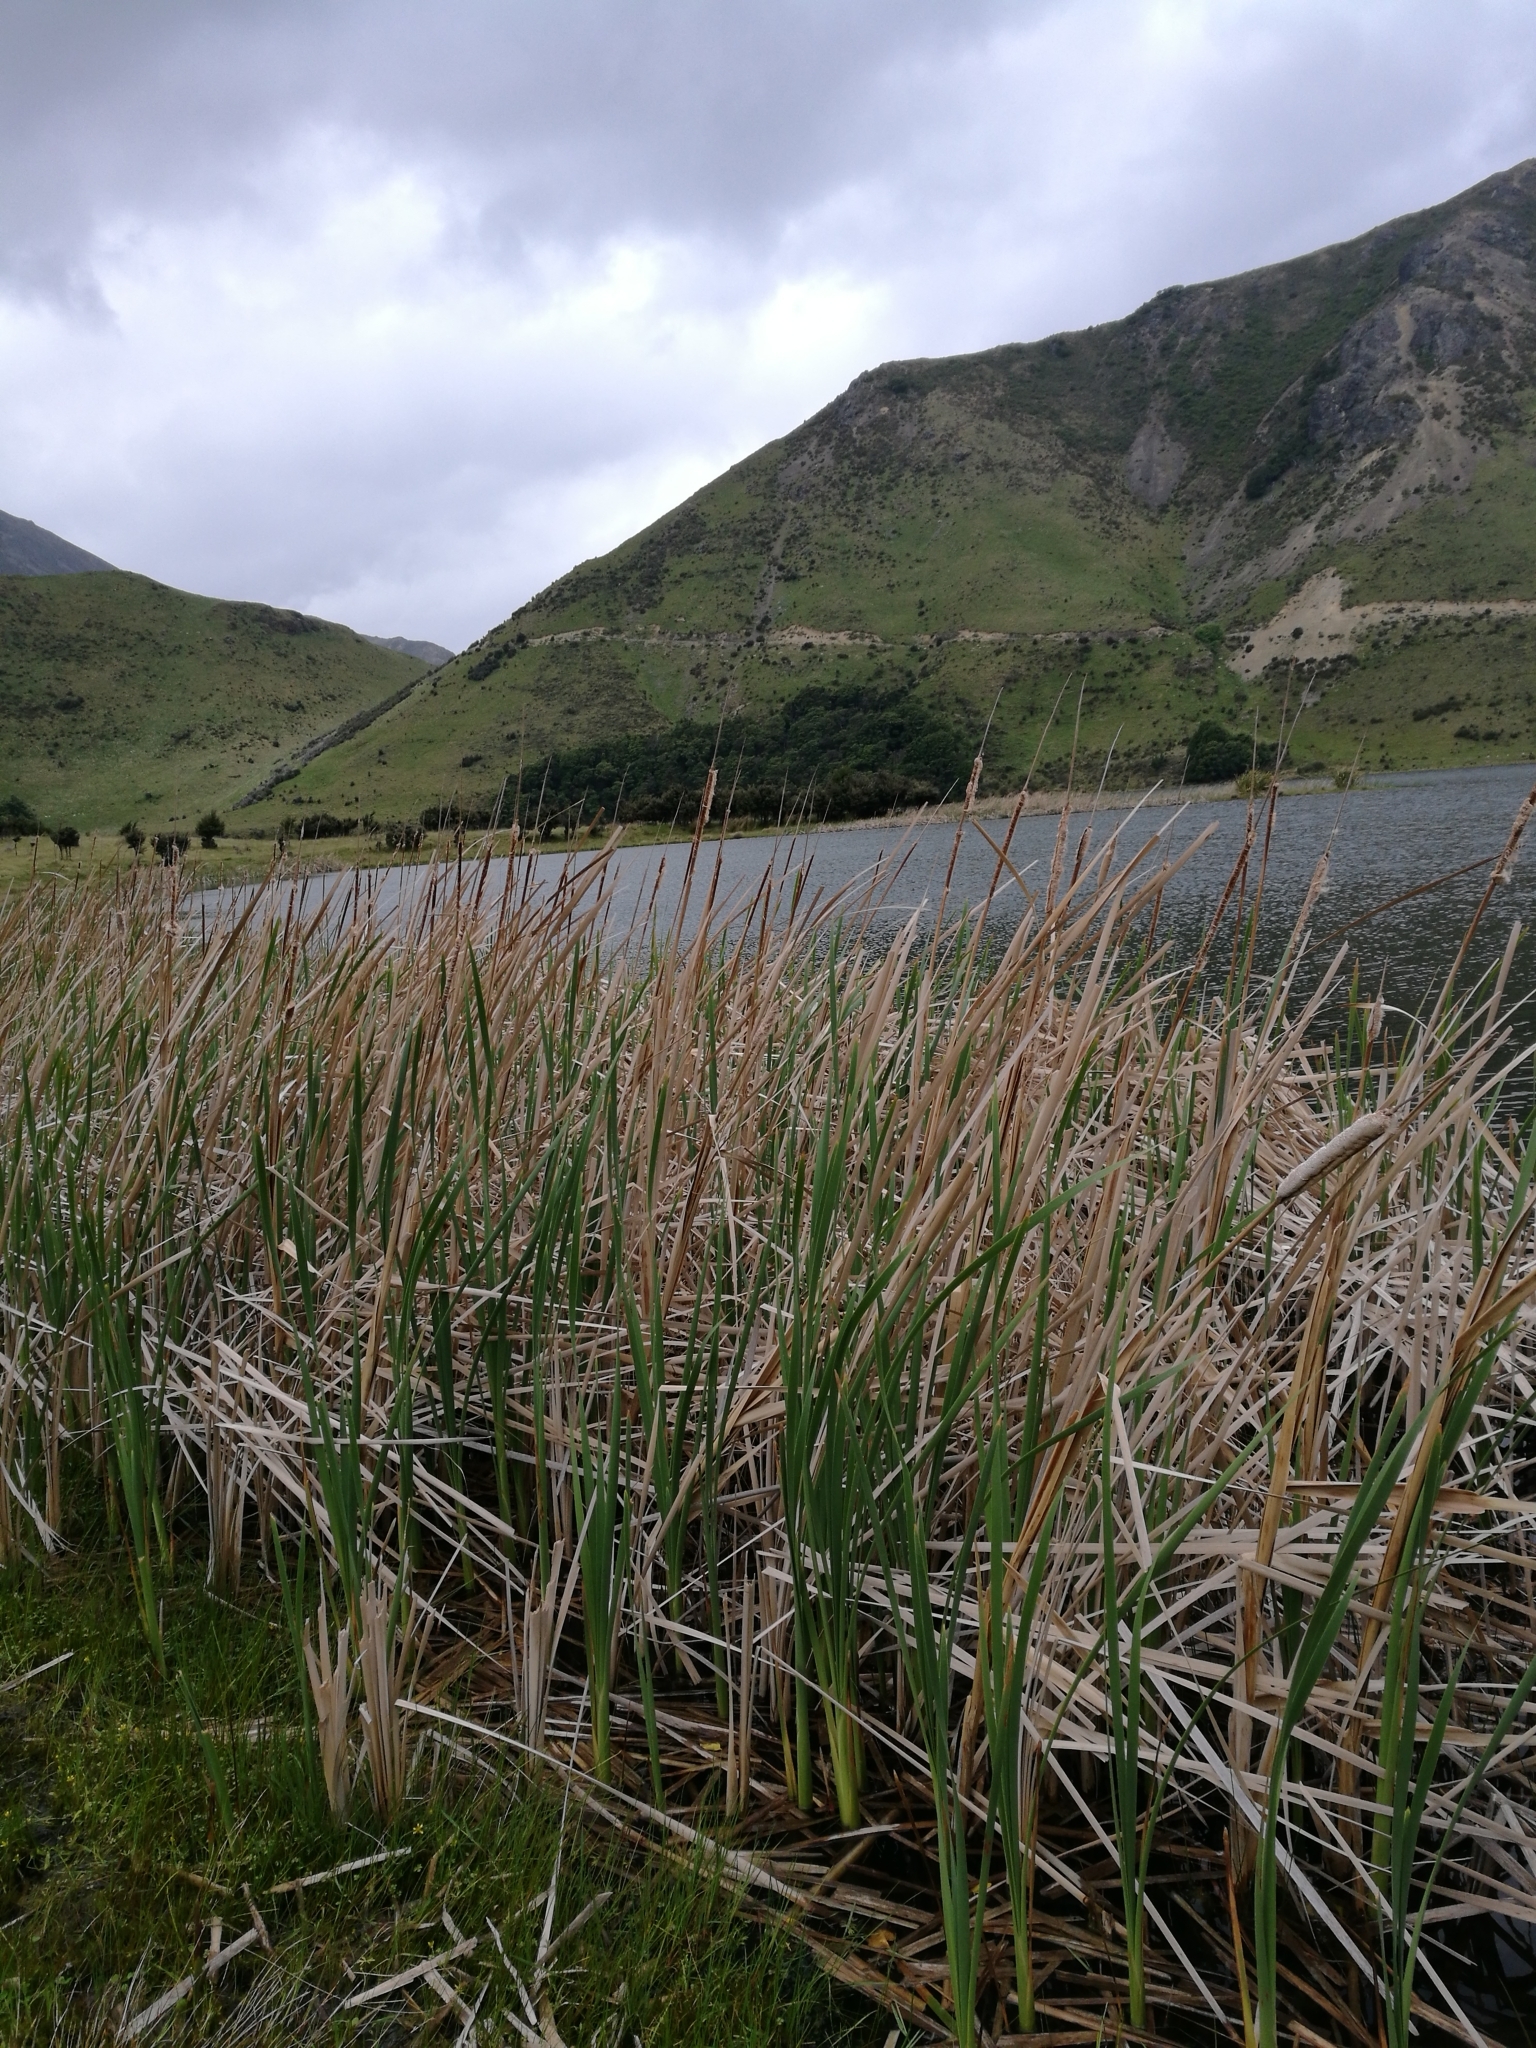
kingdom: Plantae
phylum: Tracheophyta
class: Liliopsida
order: Poales
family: Typhaceae
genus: Typha
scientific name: Typha orientalis
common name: Bullrush
